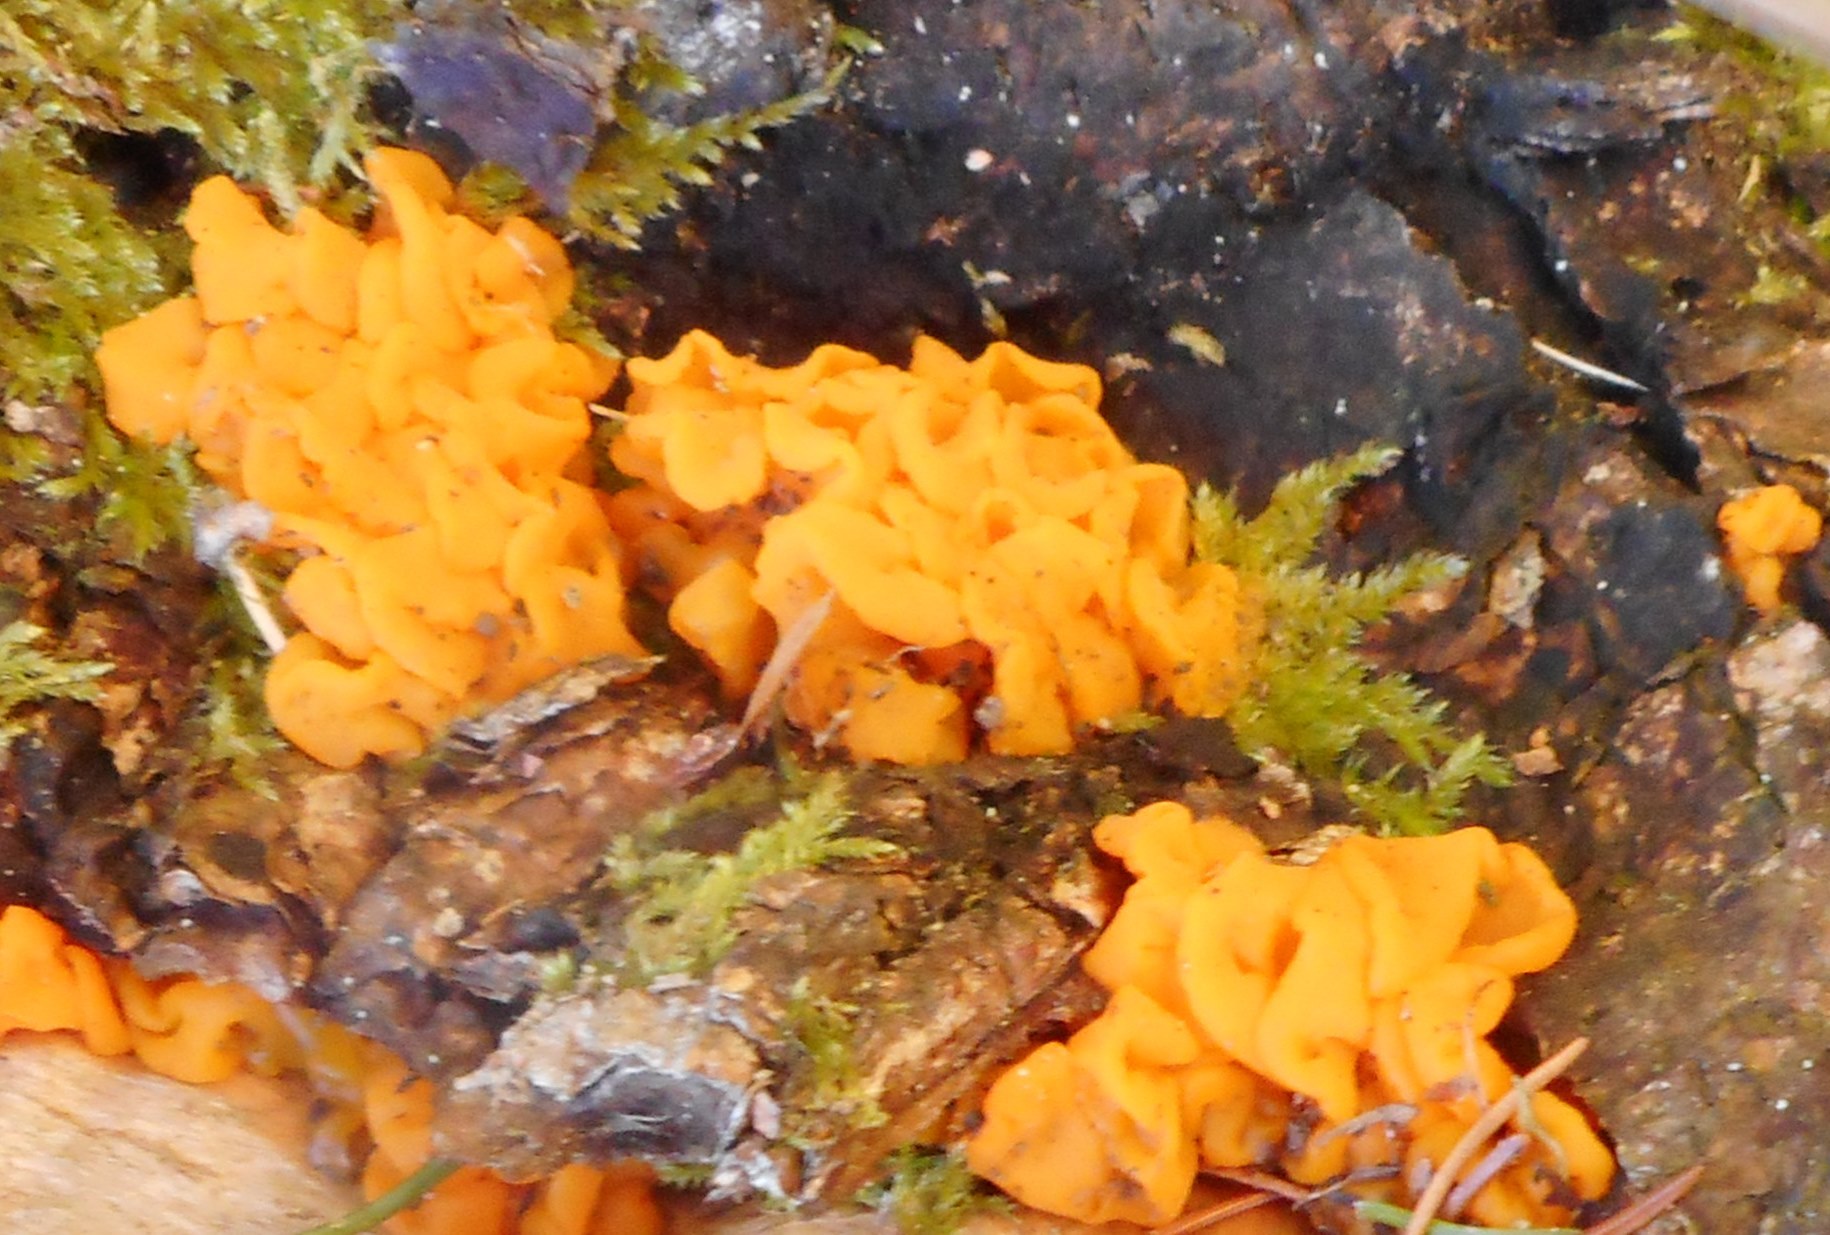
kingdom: Fungi
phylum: Basidiomycota
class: Dacrymycetes
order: Dacrymycetales
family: Dacrymycetaceae
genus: Dacrymyces
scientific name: Dacrymyces chrysospermus
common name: Orange jelly spot
